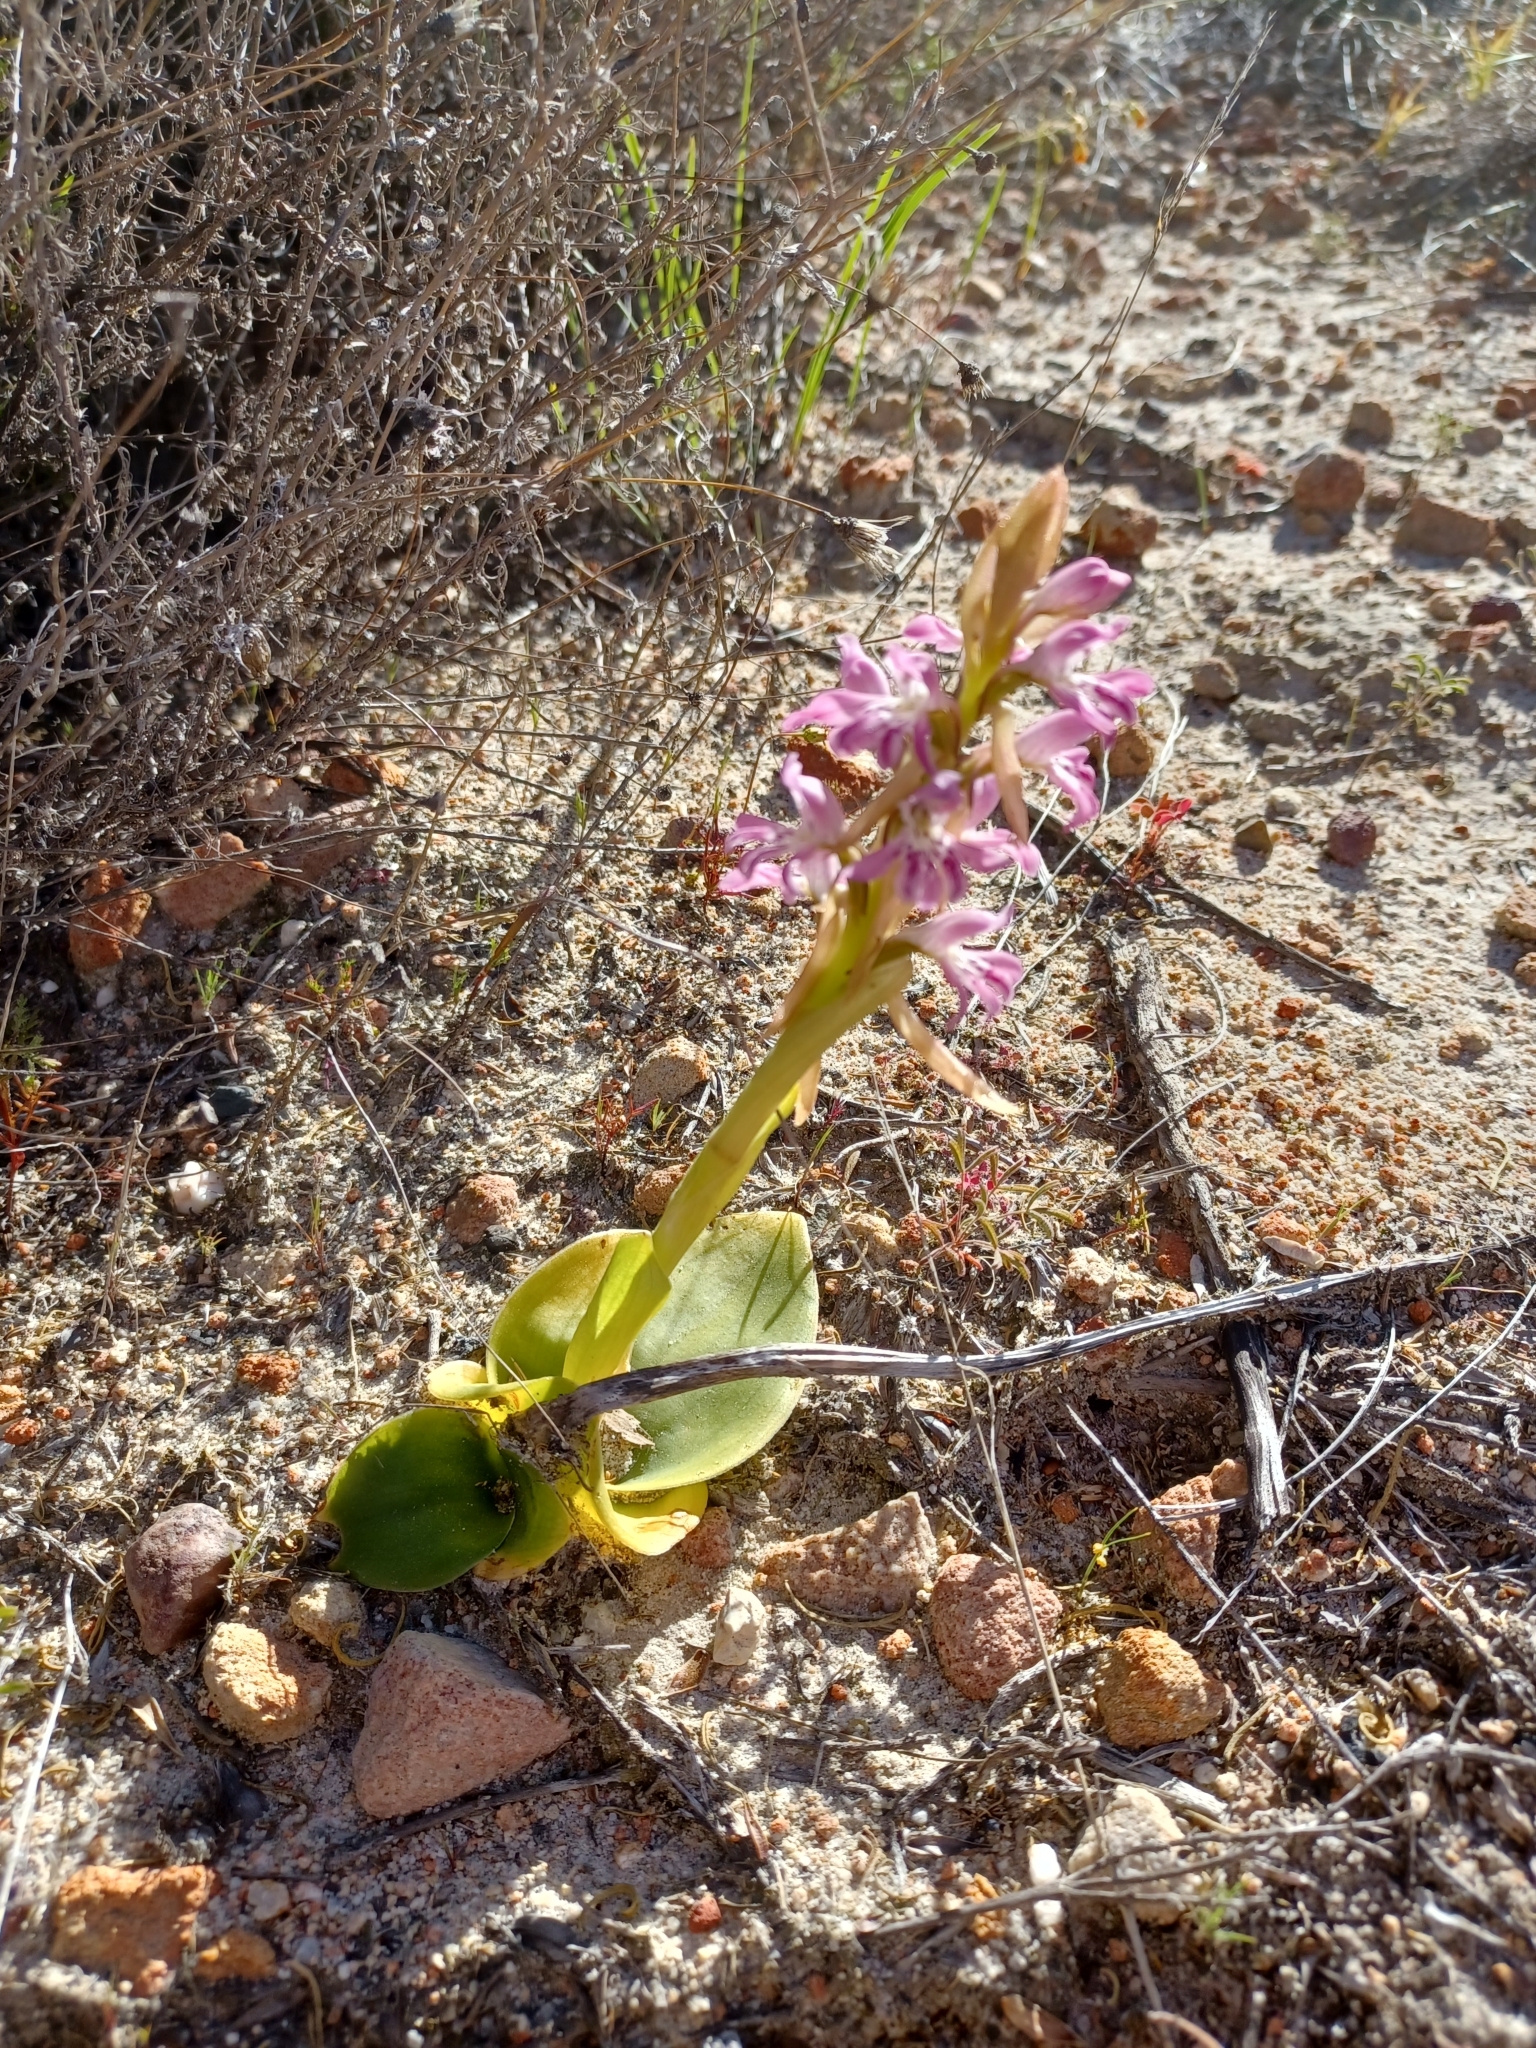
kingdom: Plantae
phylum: Tracheophyta
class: Liliopsida
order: Asparagales
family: Orchidaceae
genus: Satyrium
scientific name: Satyrium erectum
